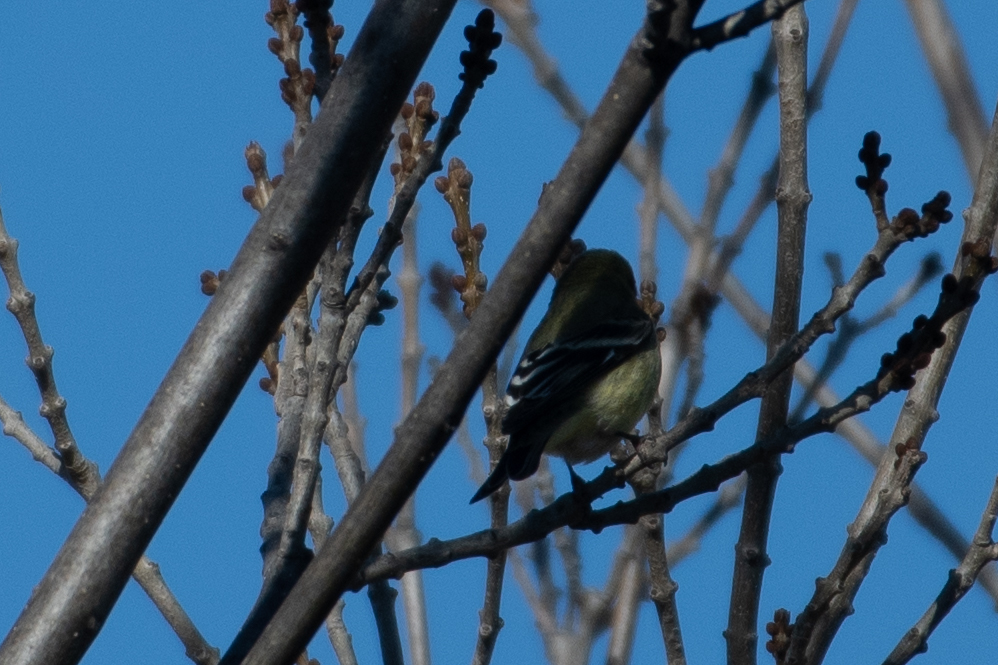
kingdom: Animalia
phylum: Chordata
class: Aves
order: Passeriformes
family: Fringillidae
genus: Spinus
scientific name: Spinus tristis
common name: American goldfinch
